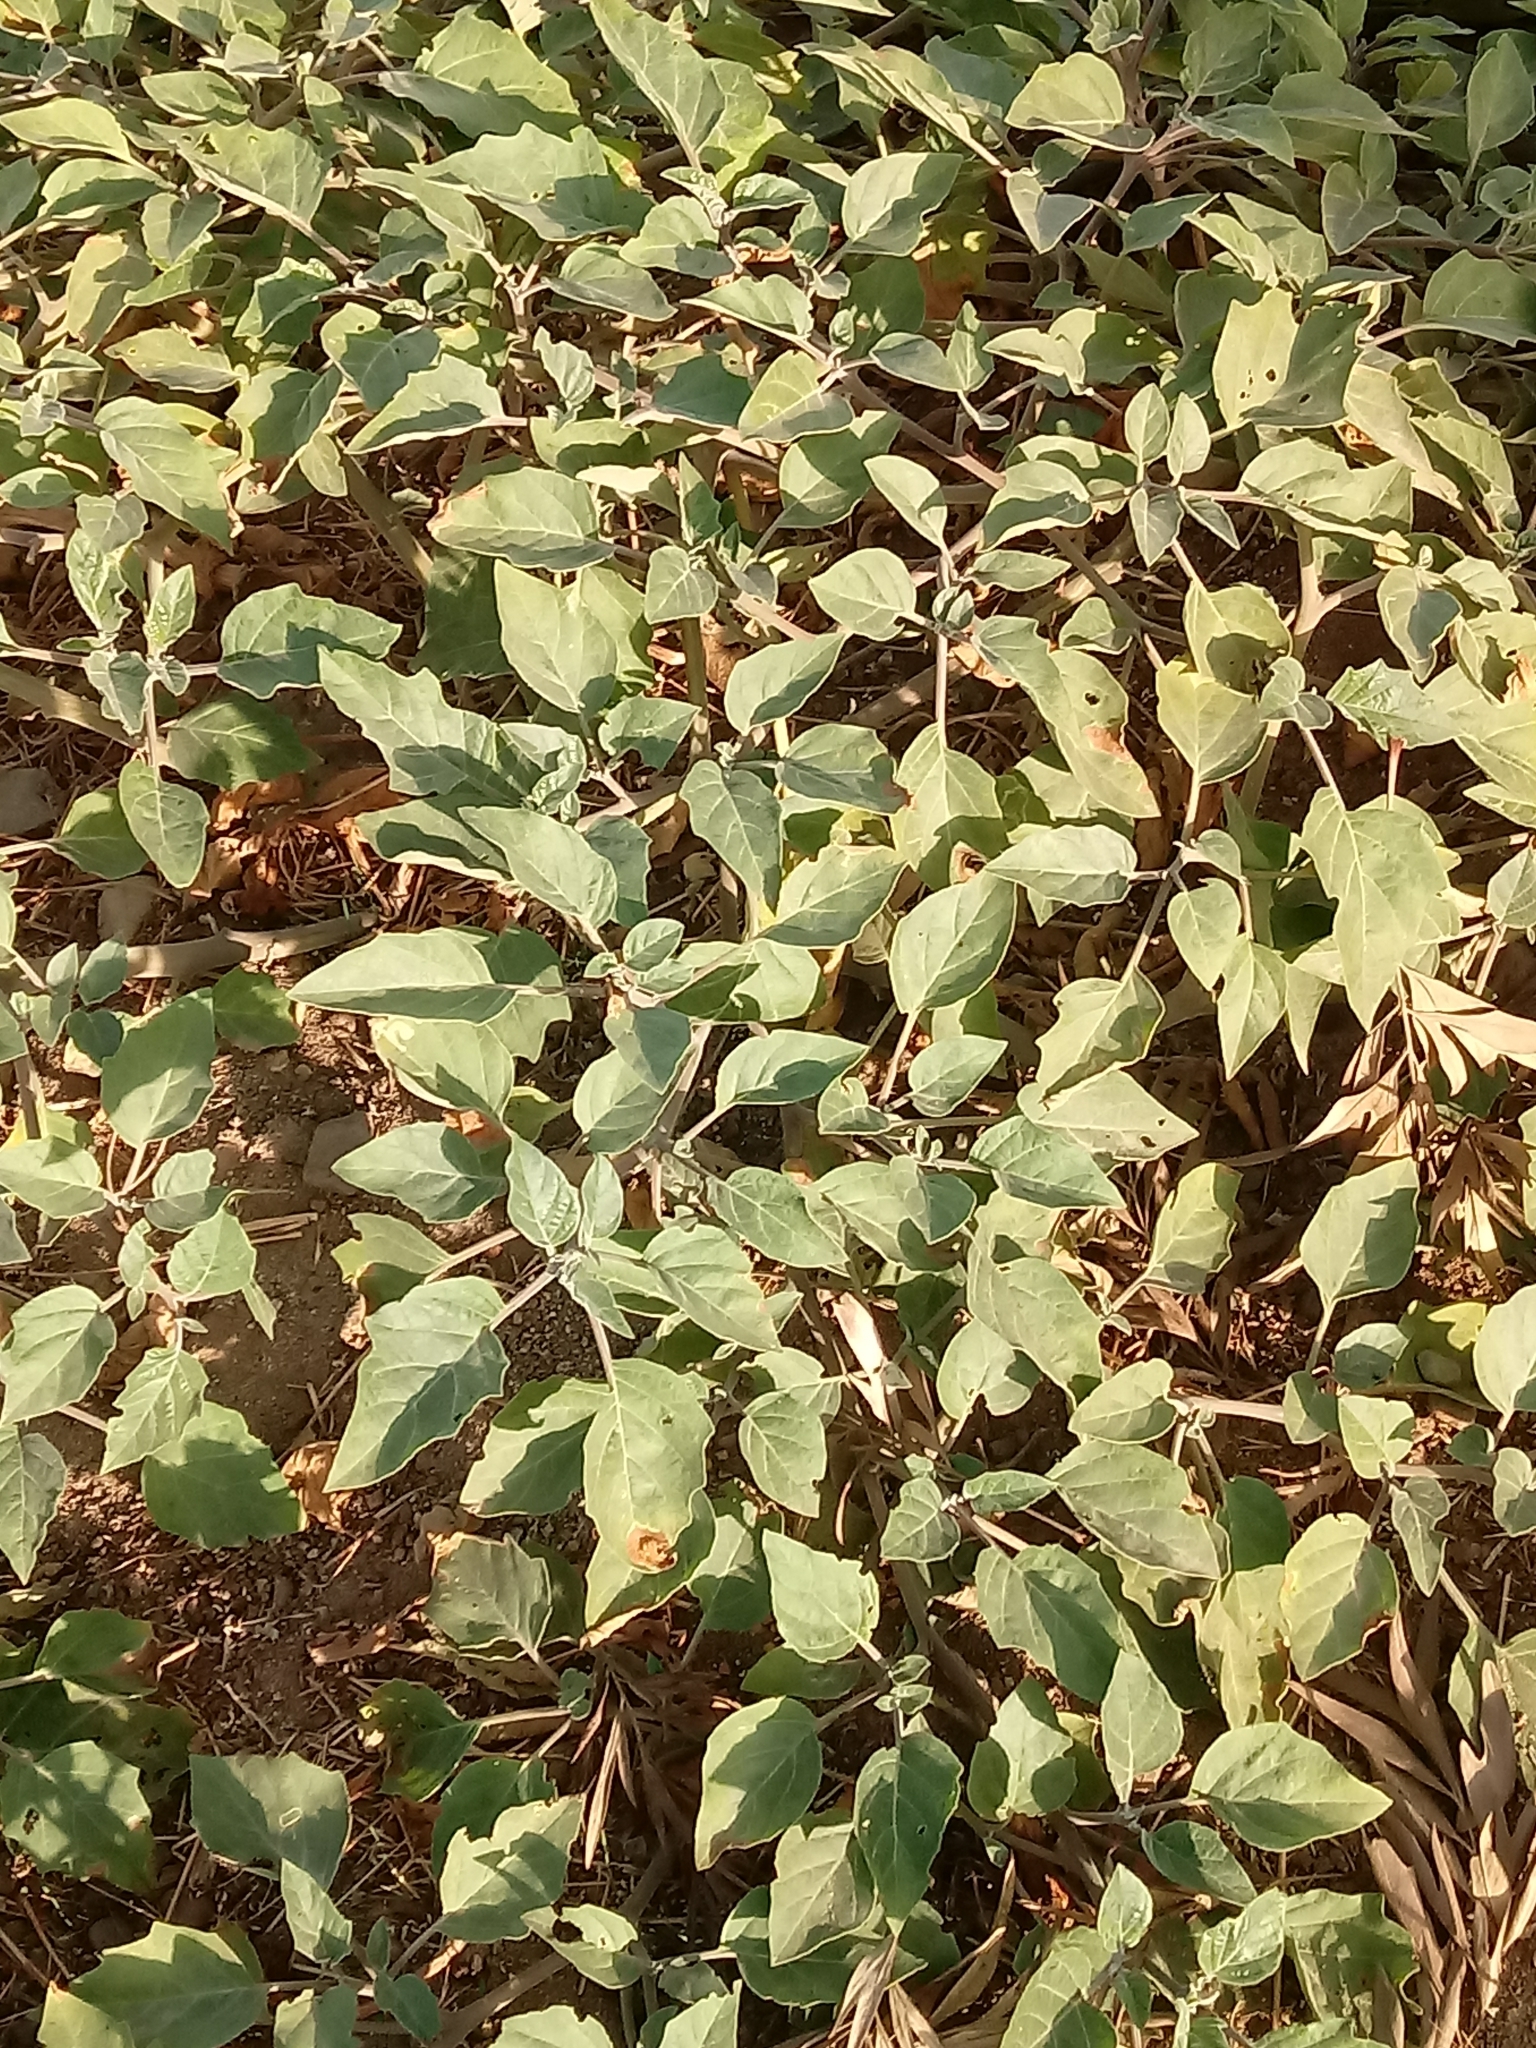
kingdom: Plantae
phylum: Tracheophyta
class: Magnoliopsida
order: Solanales
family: Solanaceae
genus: Datura
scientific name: Datura wrightii
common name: Sacred thorn-apple
